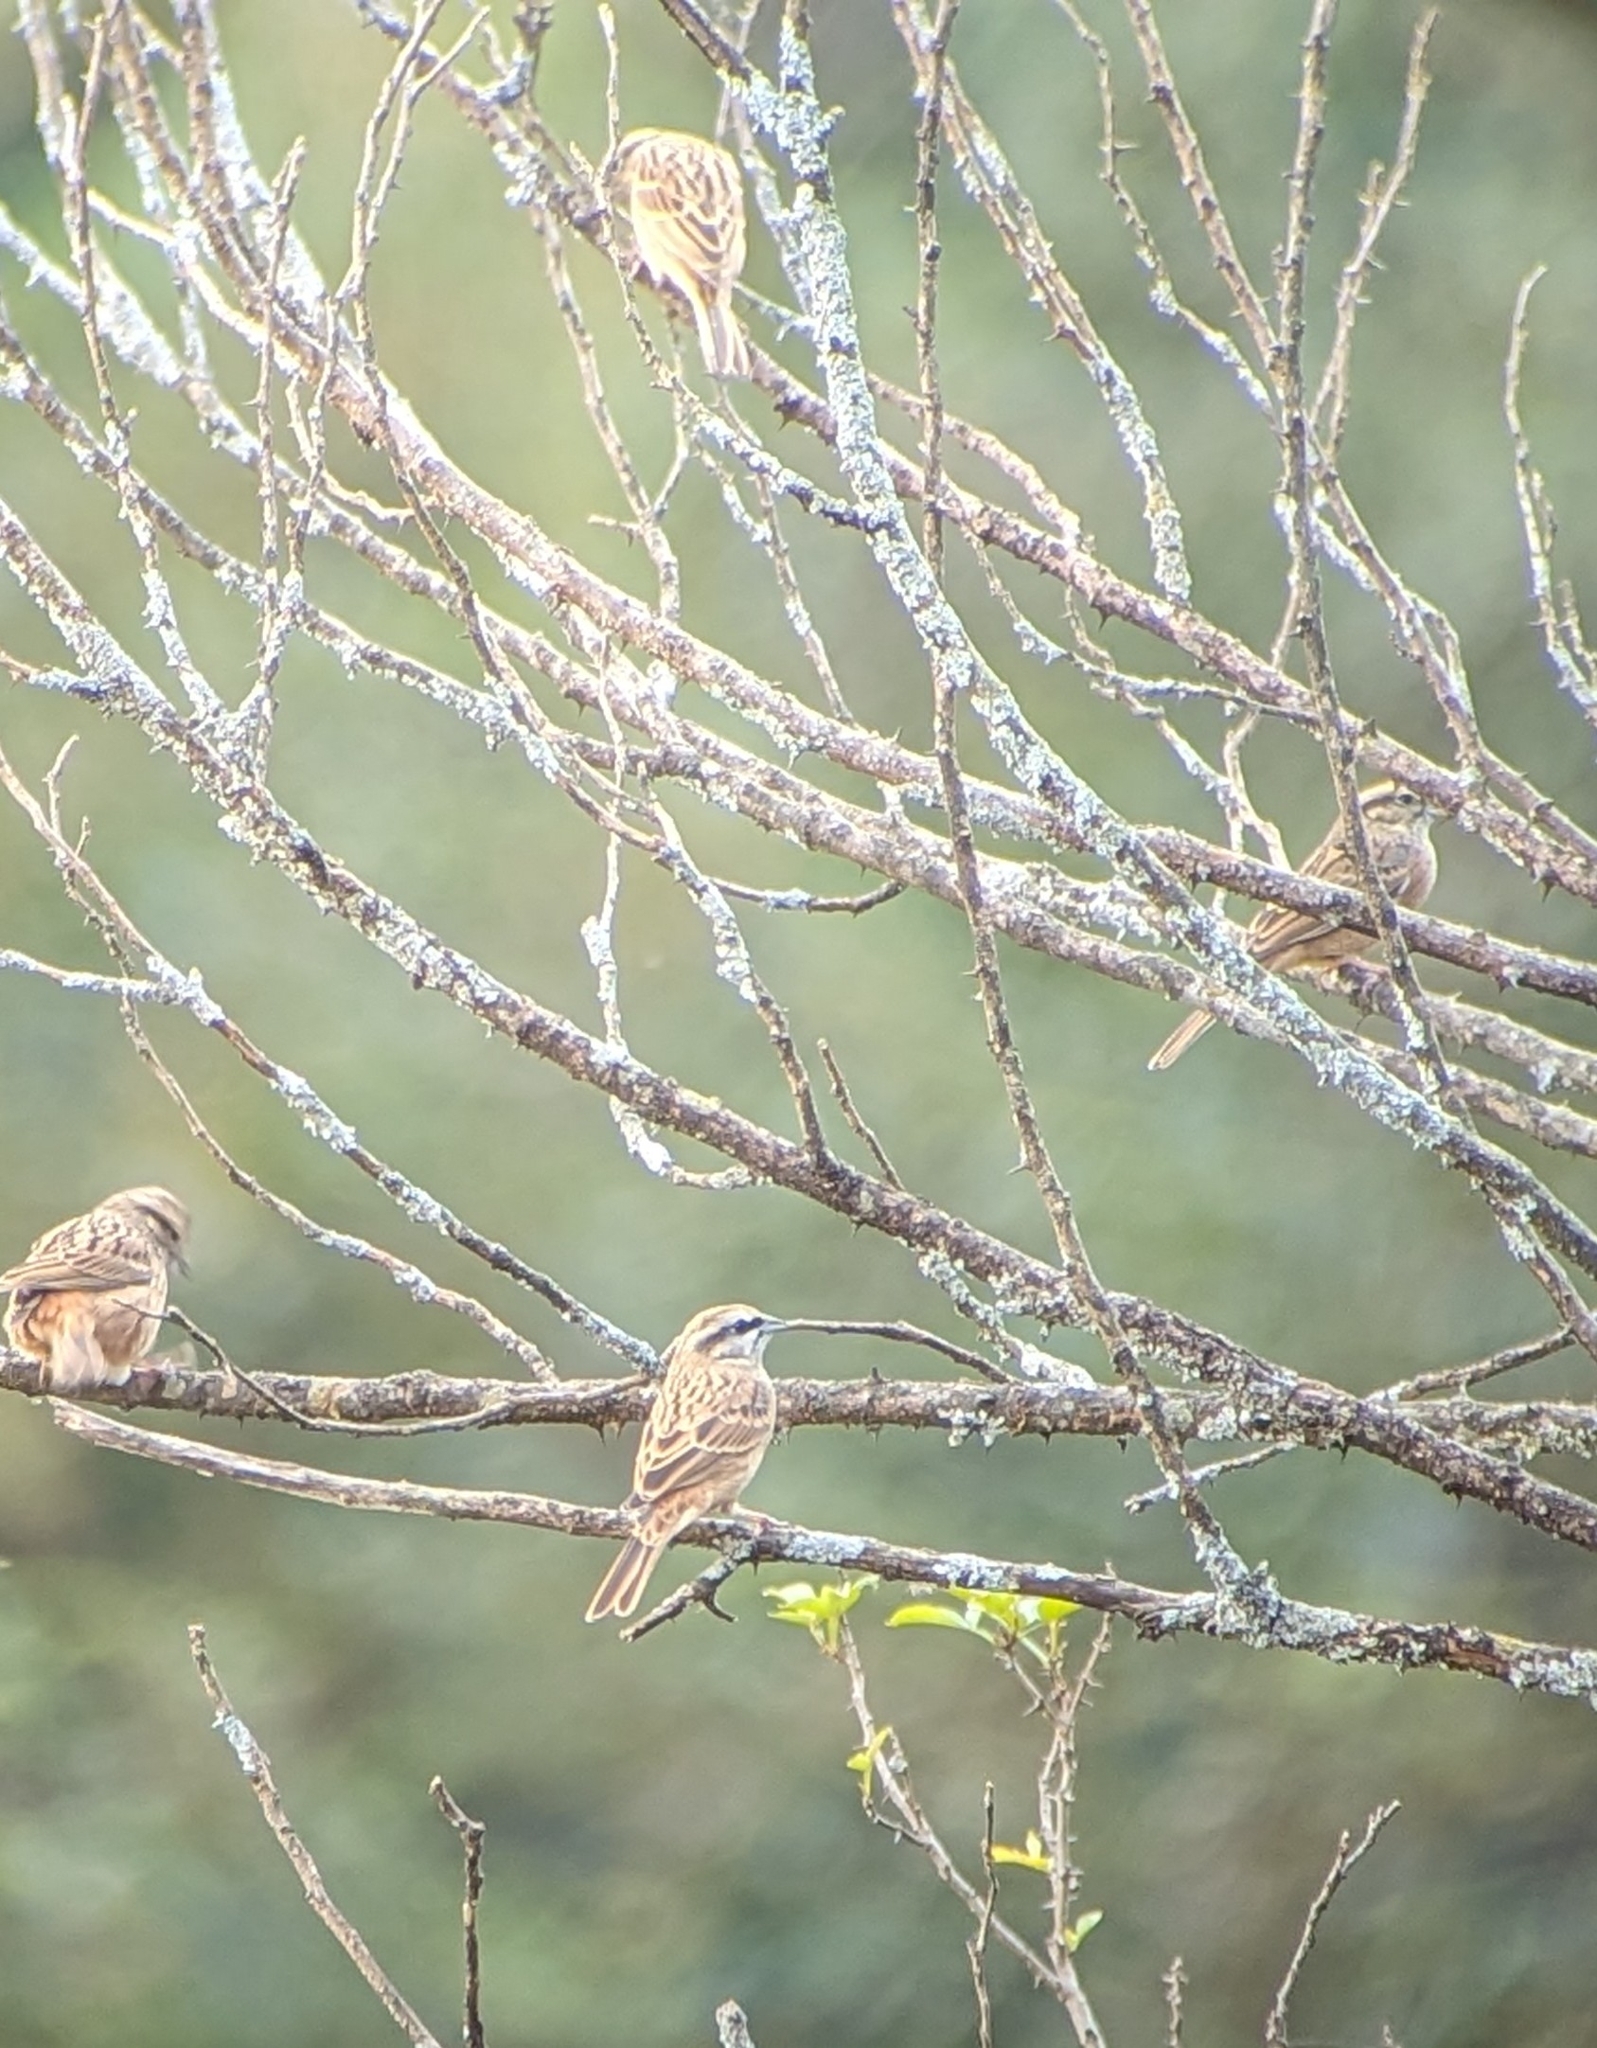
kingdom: Animalia
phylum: Chordata
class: Aves
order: Passeriformes
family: Emberizidae
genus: Emberiza
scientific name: Emberiza cia
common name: Rock bunting
